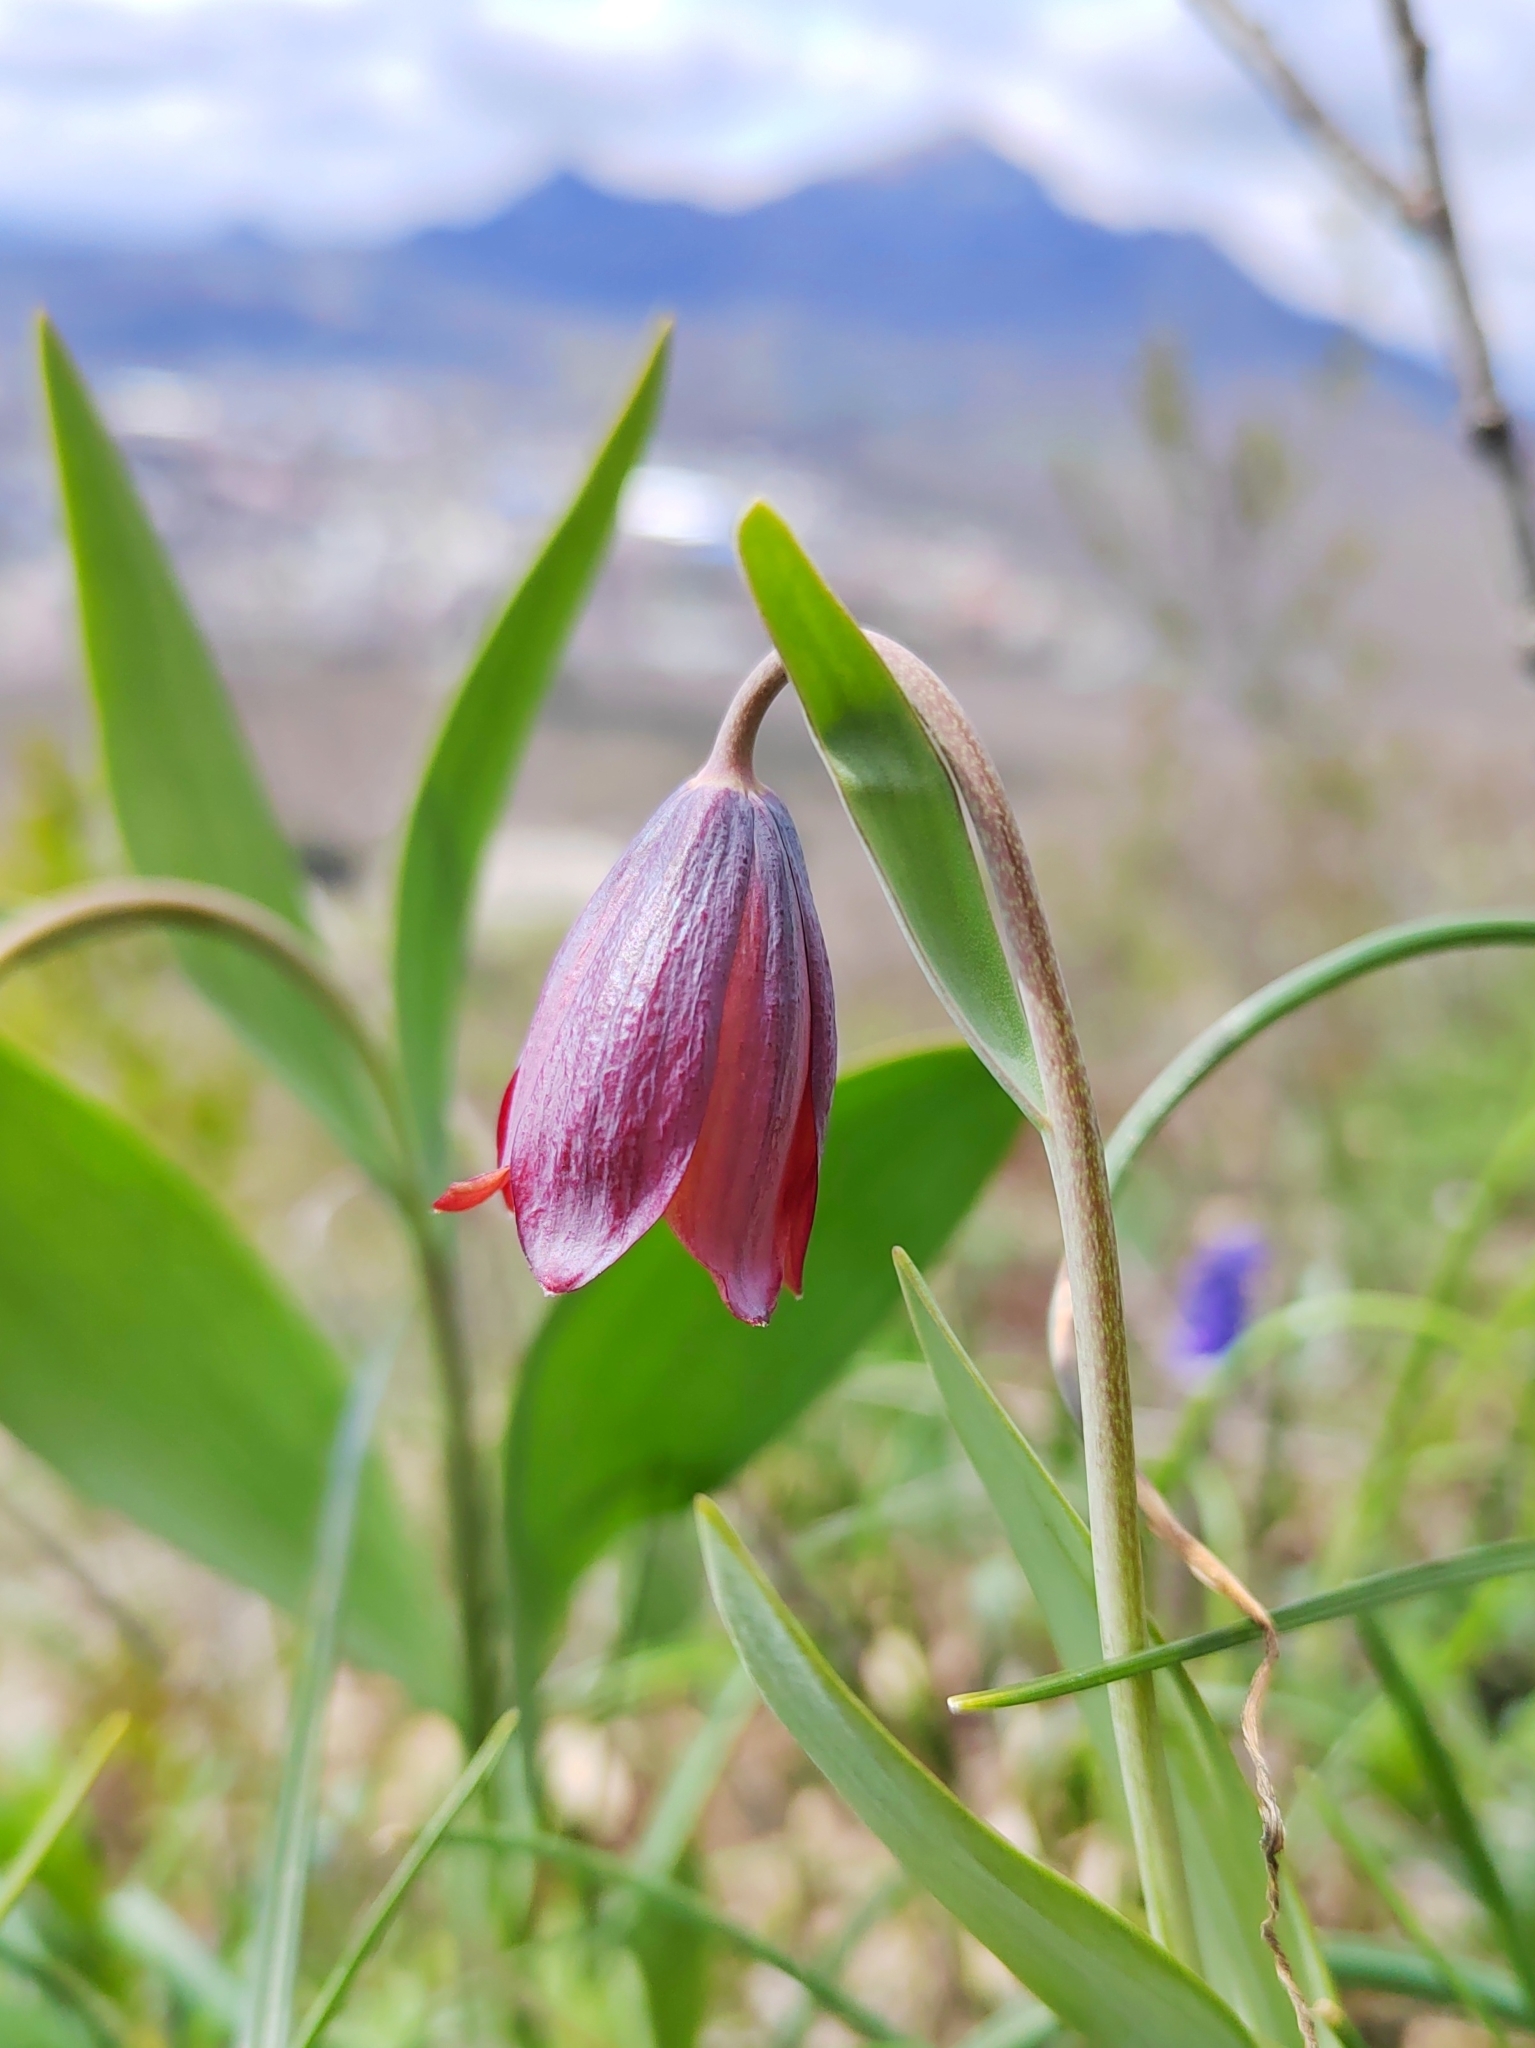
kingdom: Plantae
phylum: Tracheophyta
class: Liliopsida
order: Liliales
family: Liliaceae
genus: Fritillaria
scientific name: Fritillaria caucasica
